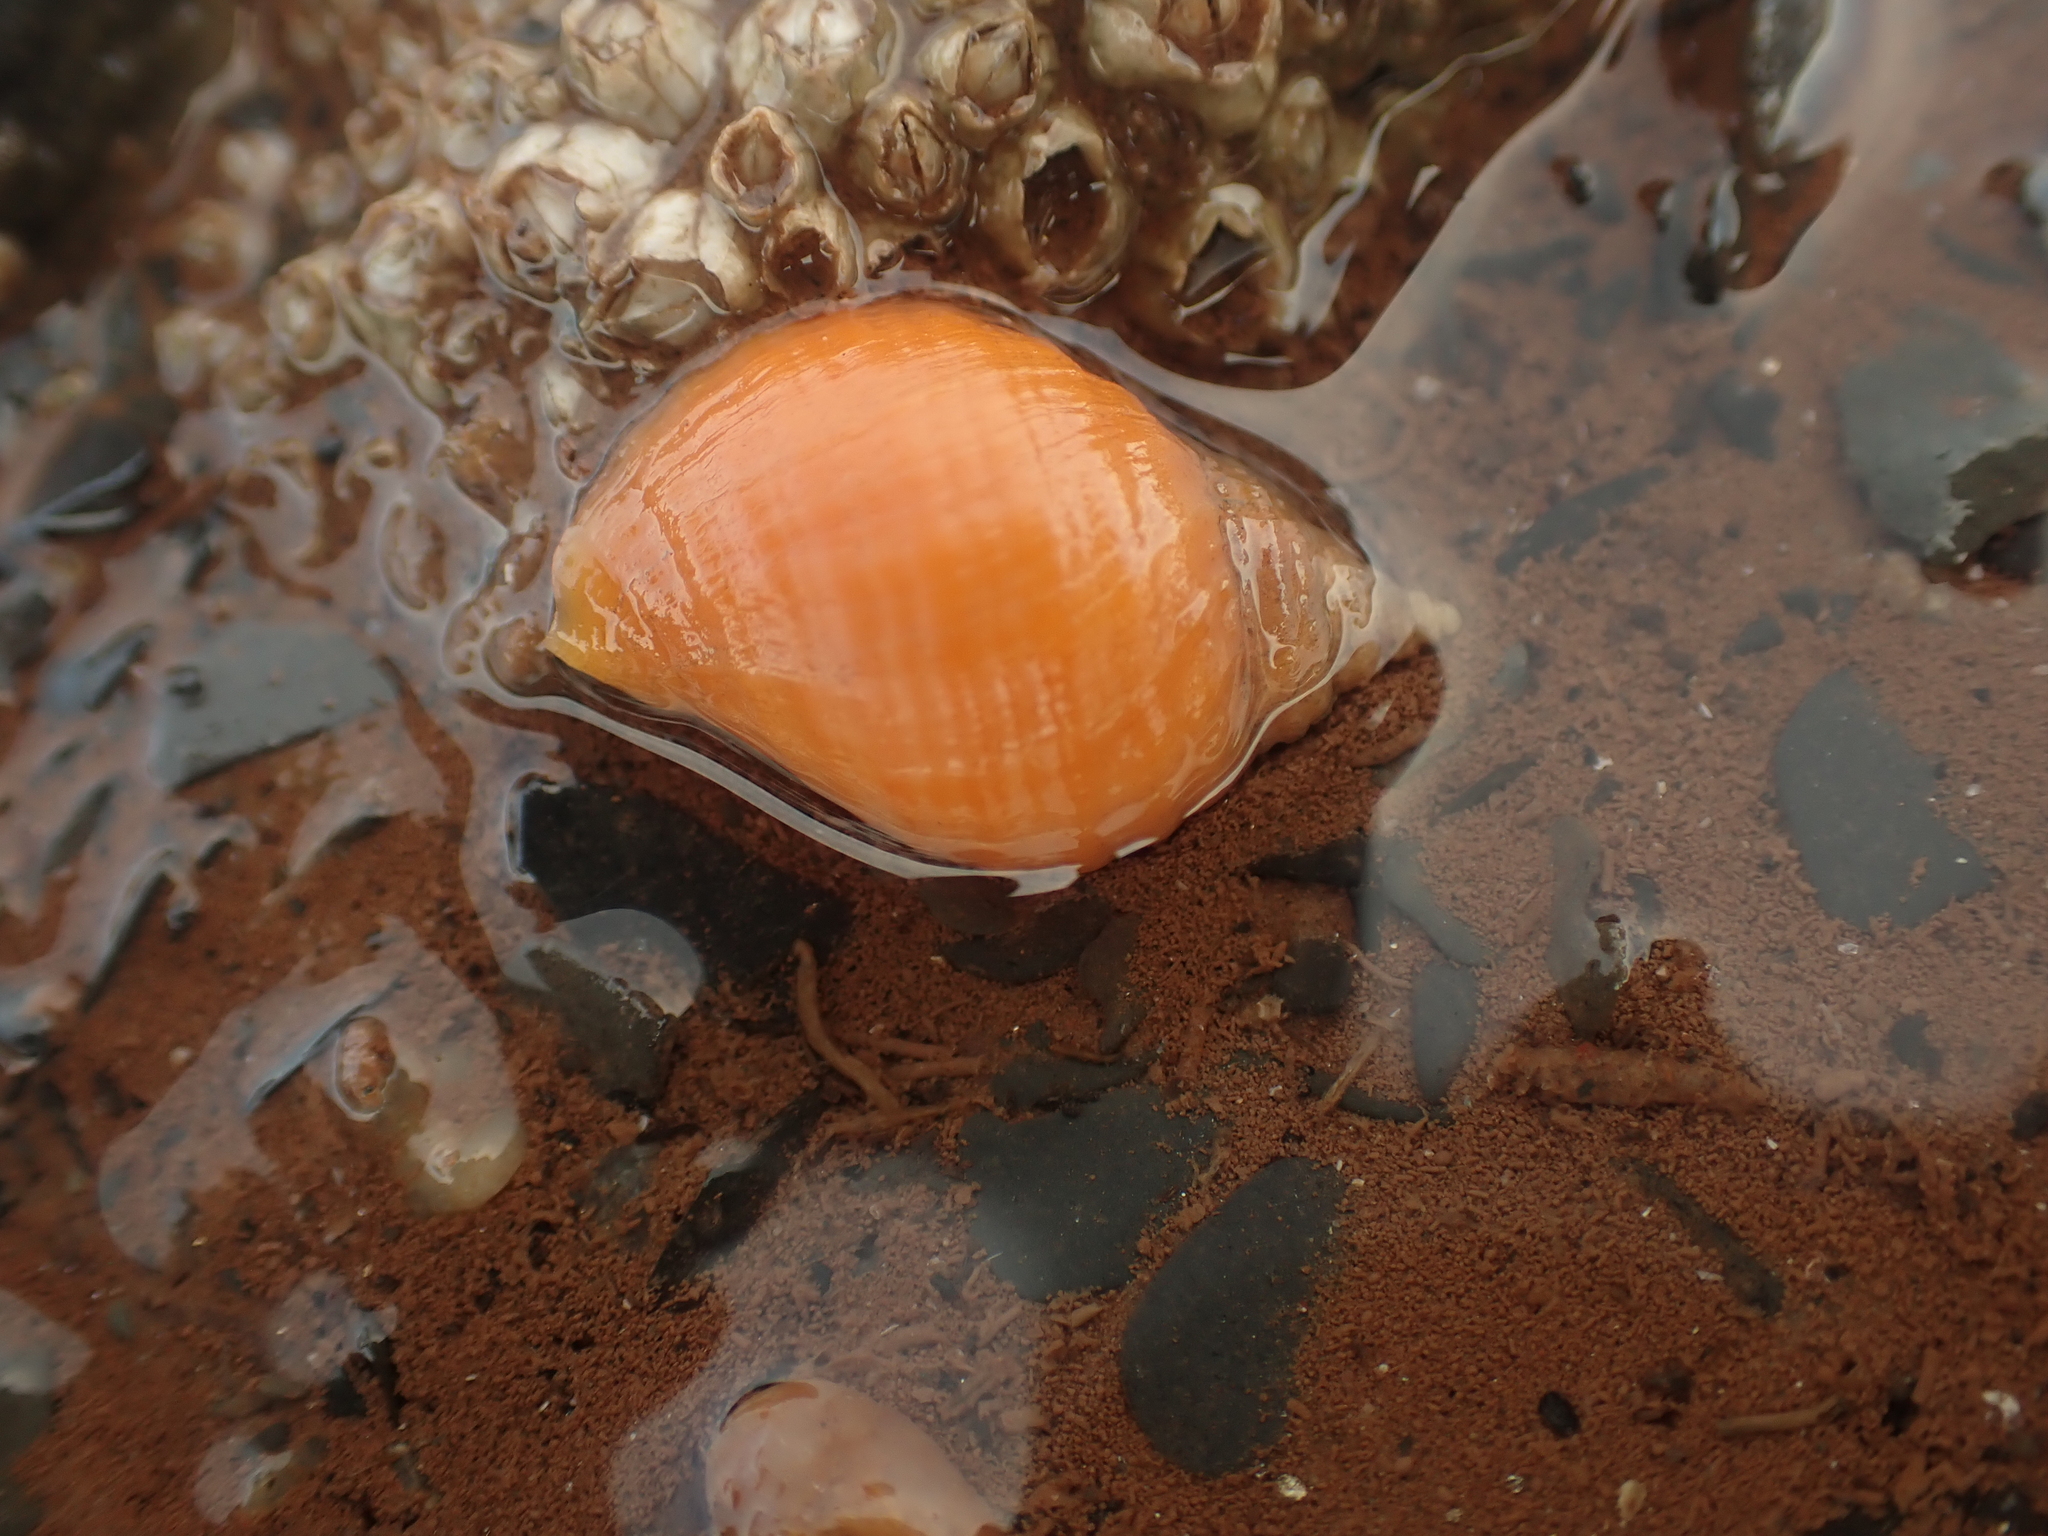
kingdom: Animalia
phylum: Mollusca
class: Gastropoda
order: Neogastropoda
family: Muricidae
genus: Nucella
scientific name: Nucella lapillus
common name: Dog whelk
